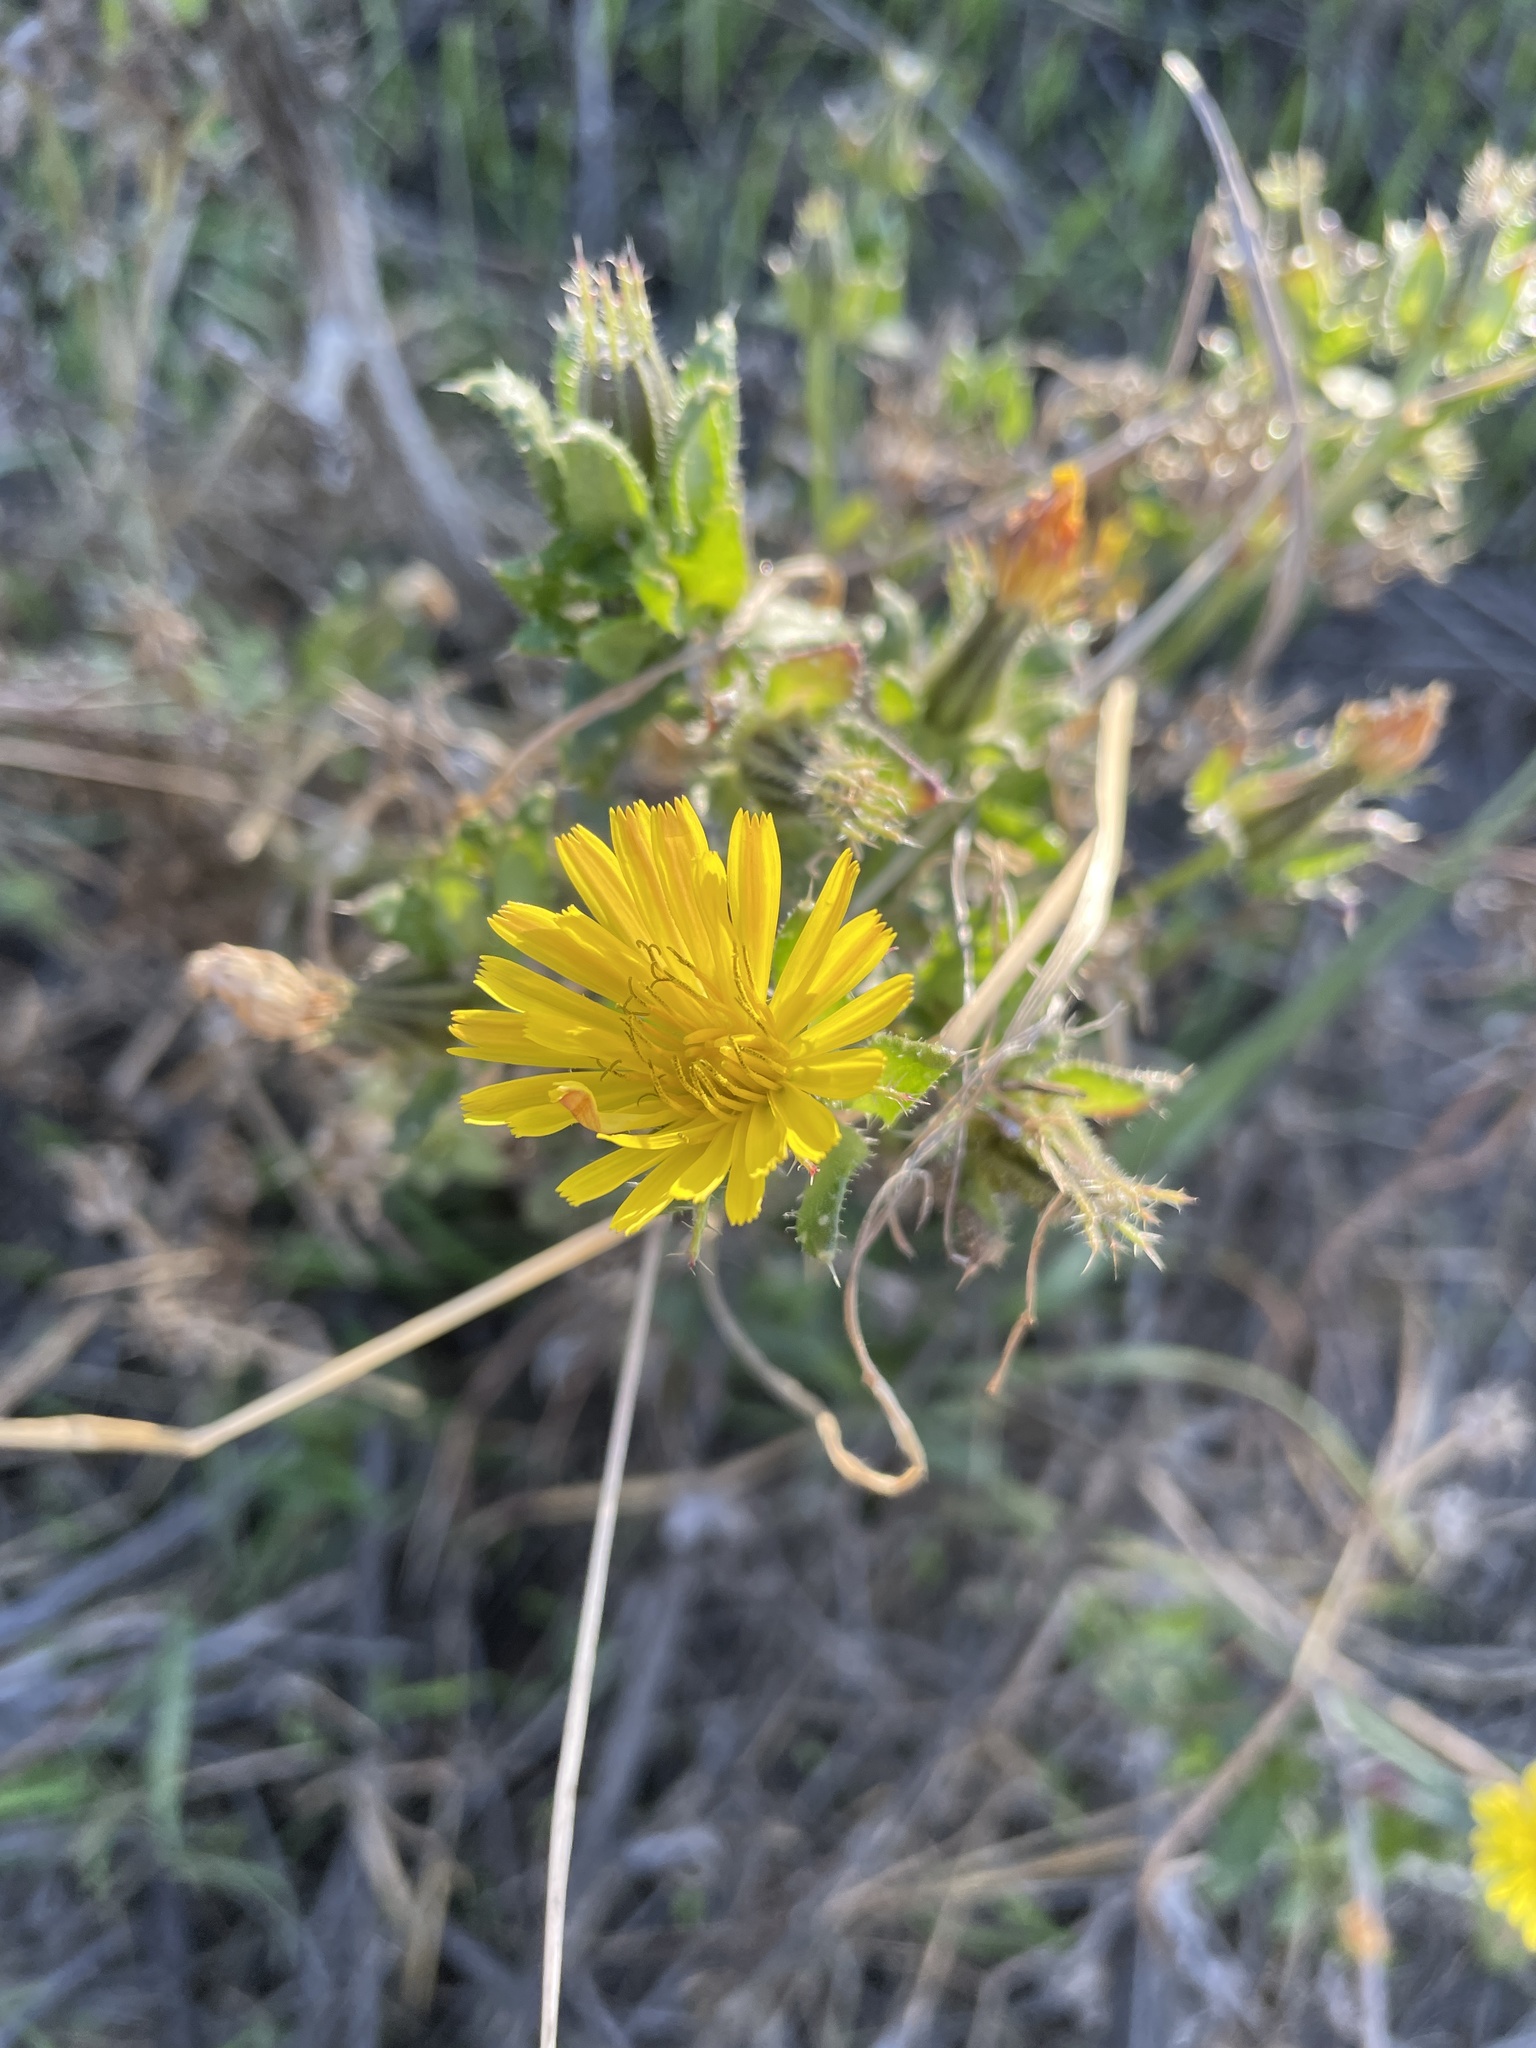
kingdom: Plantae
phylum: Tracheophyta
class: Magnoliopsida
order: Asterales
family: Asteraceae
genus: Helminthotheca
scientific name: Helminthotheca echioides
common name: Ox-tongue
